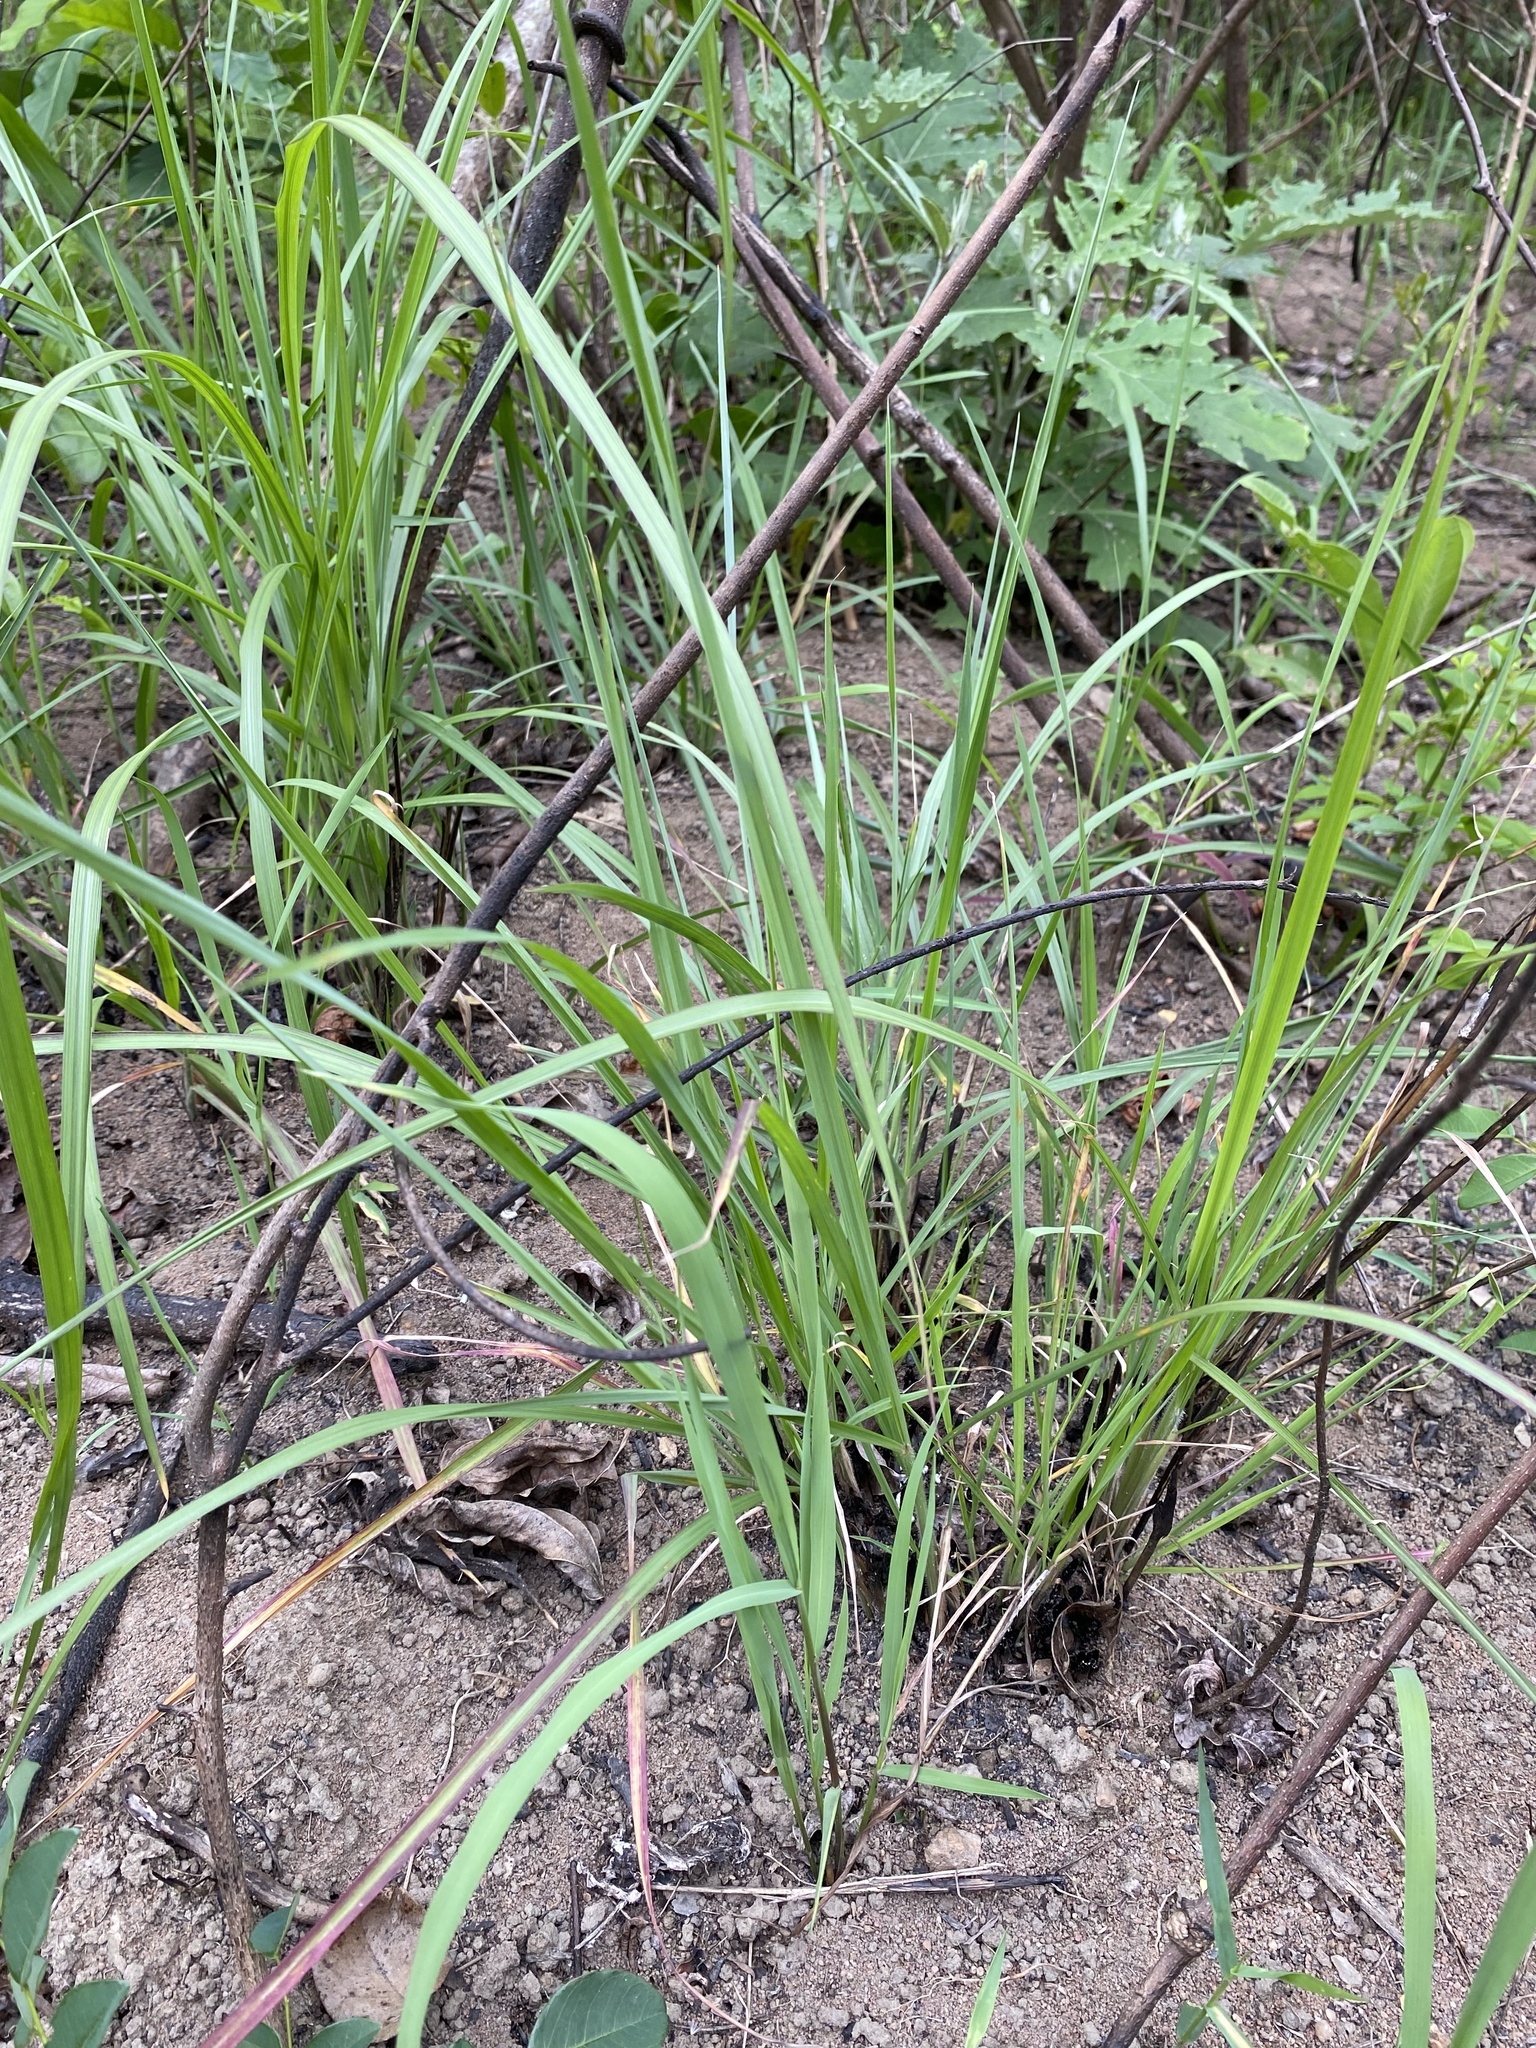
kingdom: Plantae
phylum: Tracheophyta
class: Liliopsida
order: Poales
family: Poaceae
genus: Eragrostis
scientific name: Eragrostis curvula
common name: African love-grass
